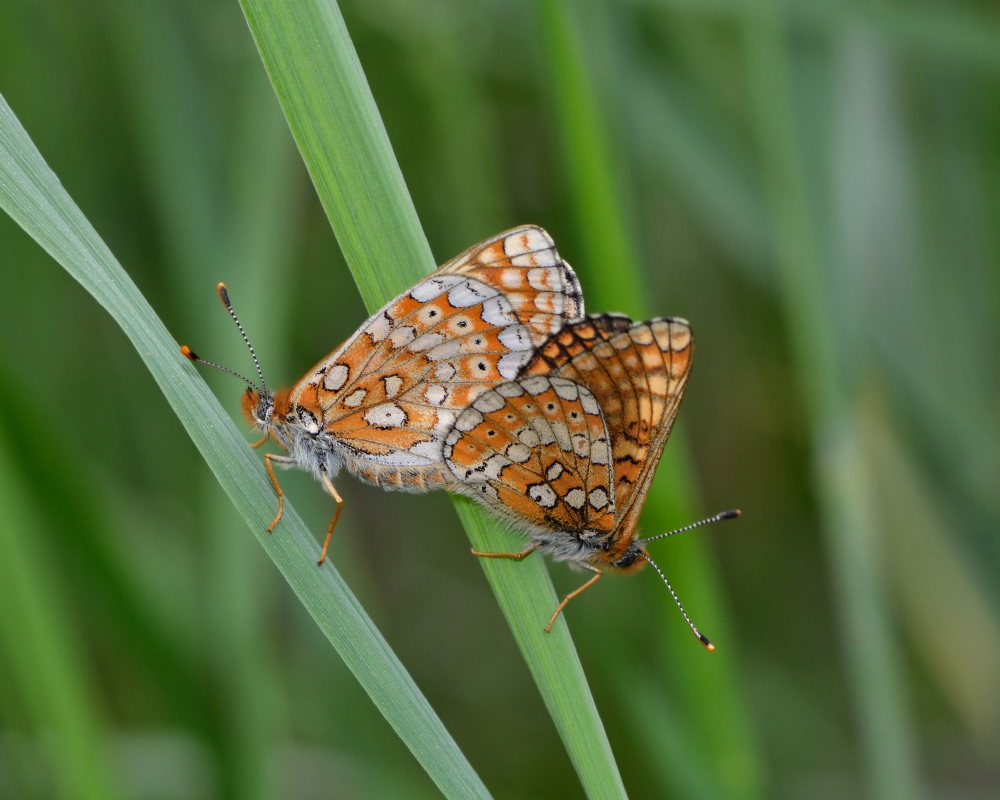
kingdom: Animalia
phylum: Arthropoda
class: Insecta
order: Lepidoptera
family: Nymphalidae
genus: Euphydryas
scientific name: Euphydryas aurinia
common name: Marsh fritillary
